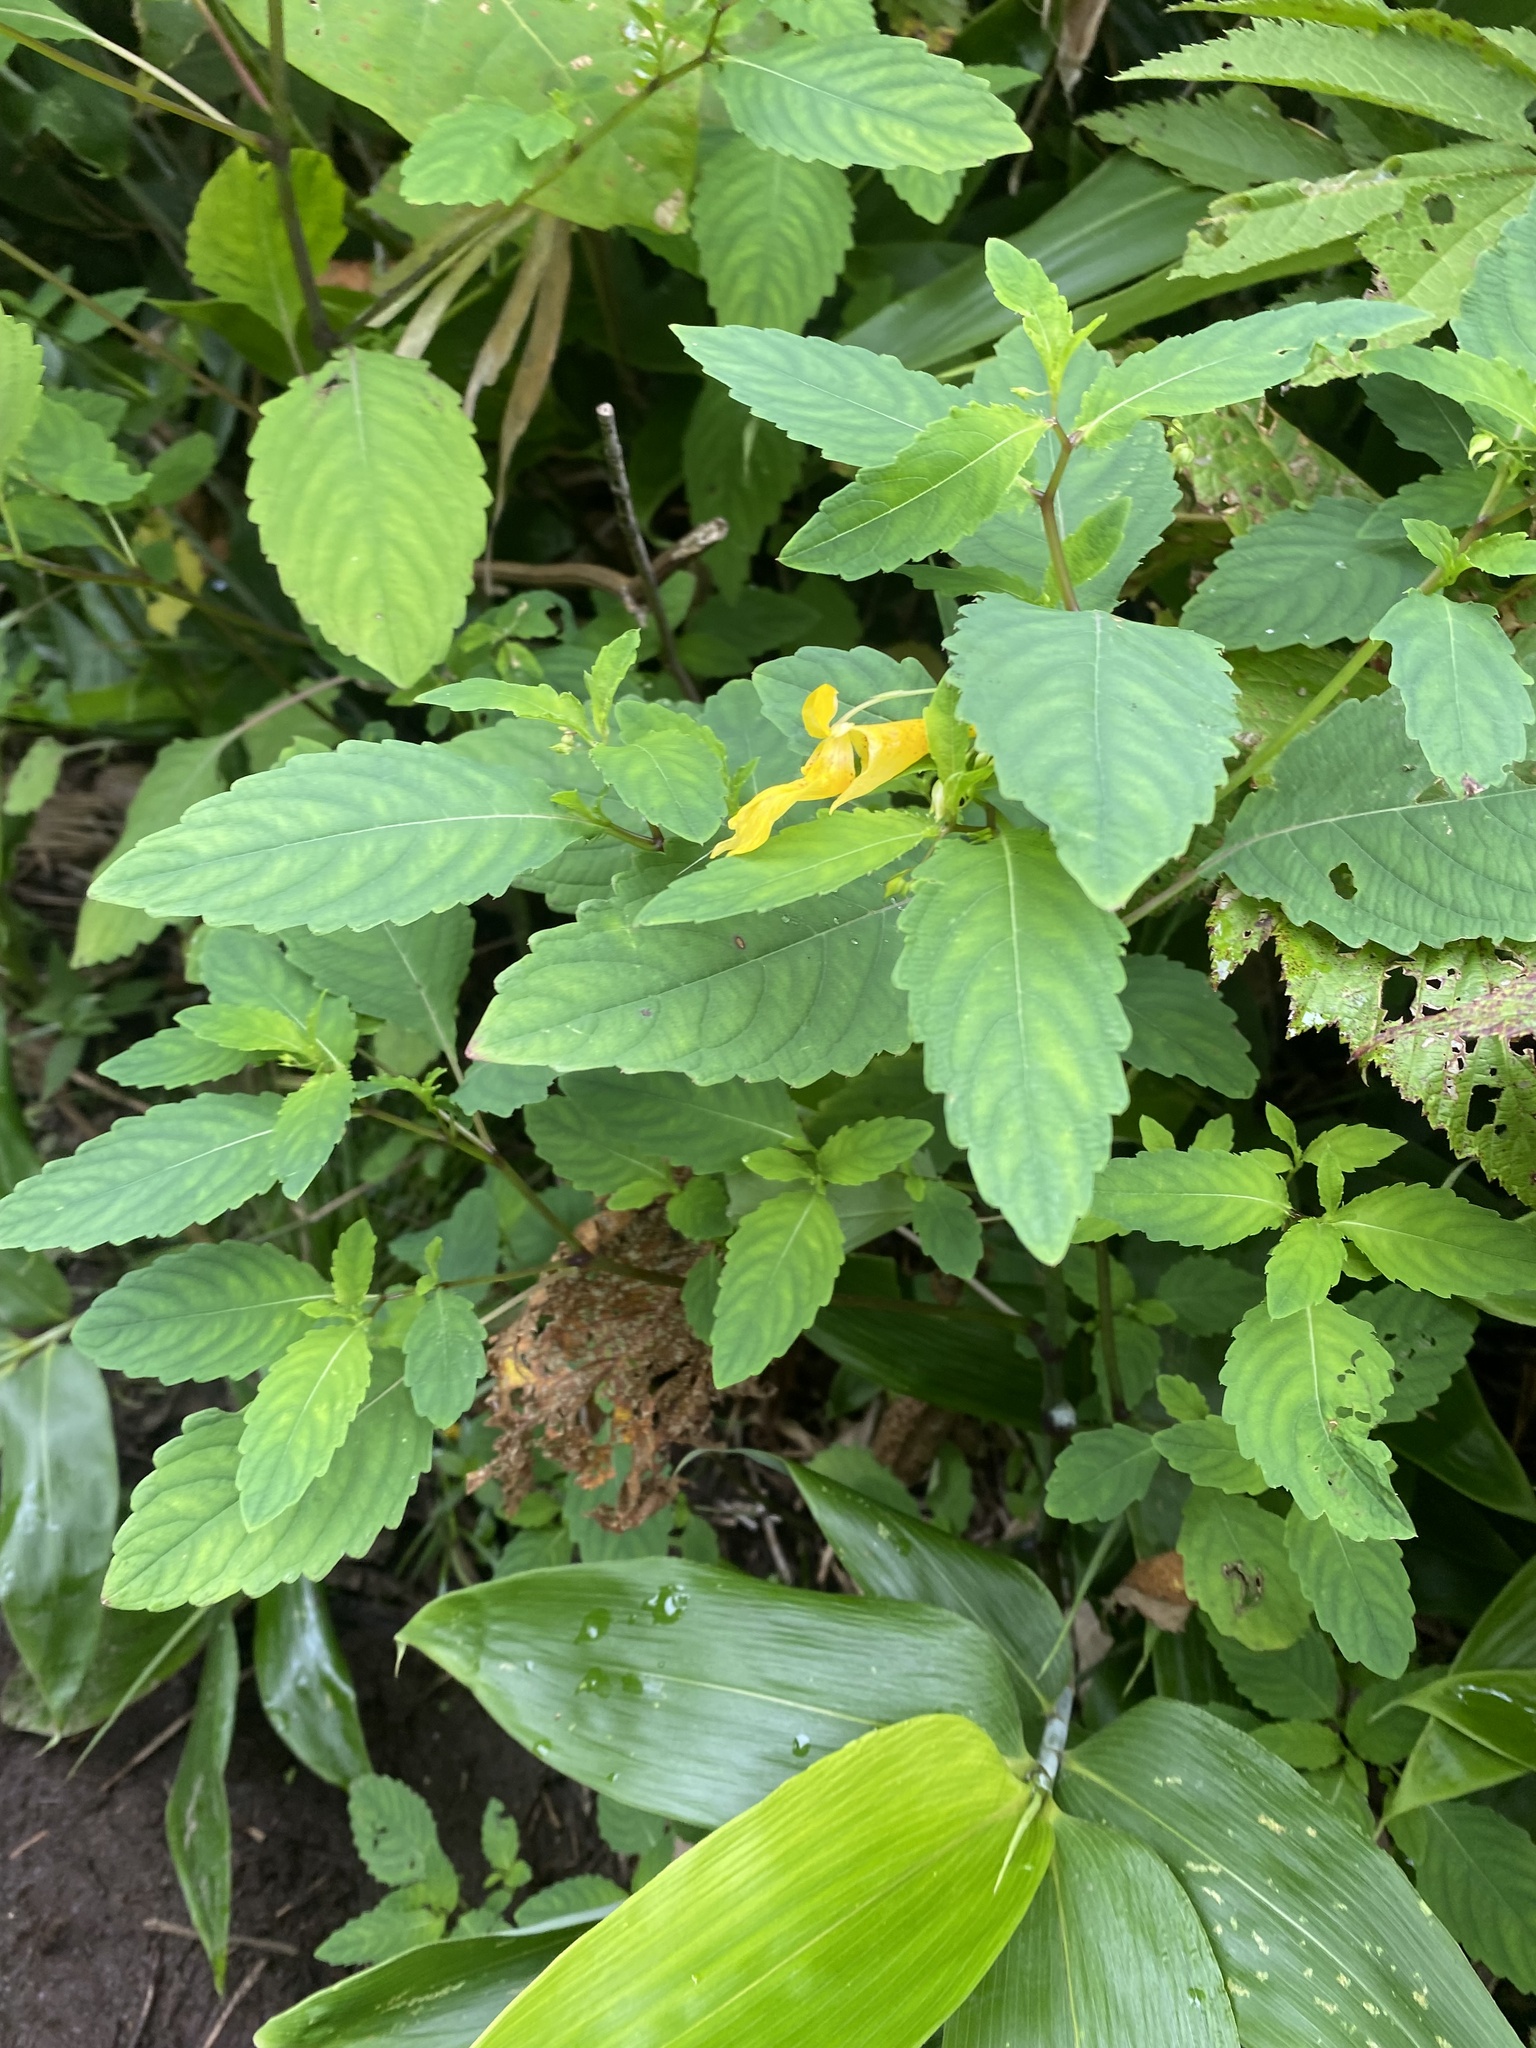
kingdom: Plantae
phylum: Tracheophyta
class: Magnoliopsida
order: Ericales
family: Balsaminaceae
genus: Impatiens
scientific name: Impatiens noli-tangere
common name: Touch-me-not balsam
